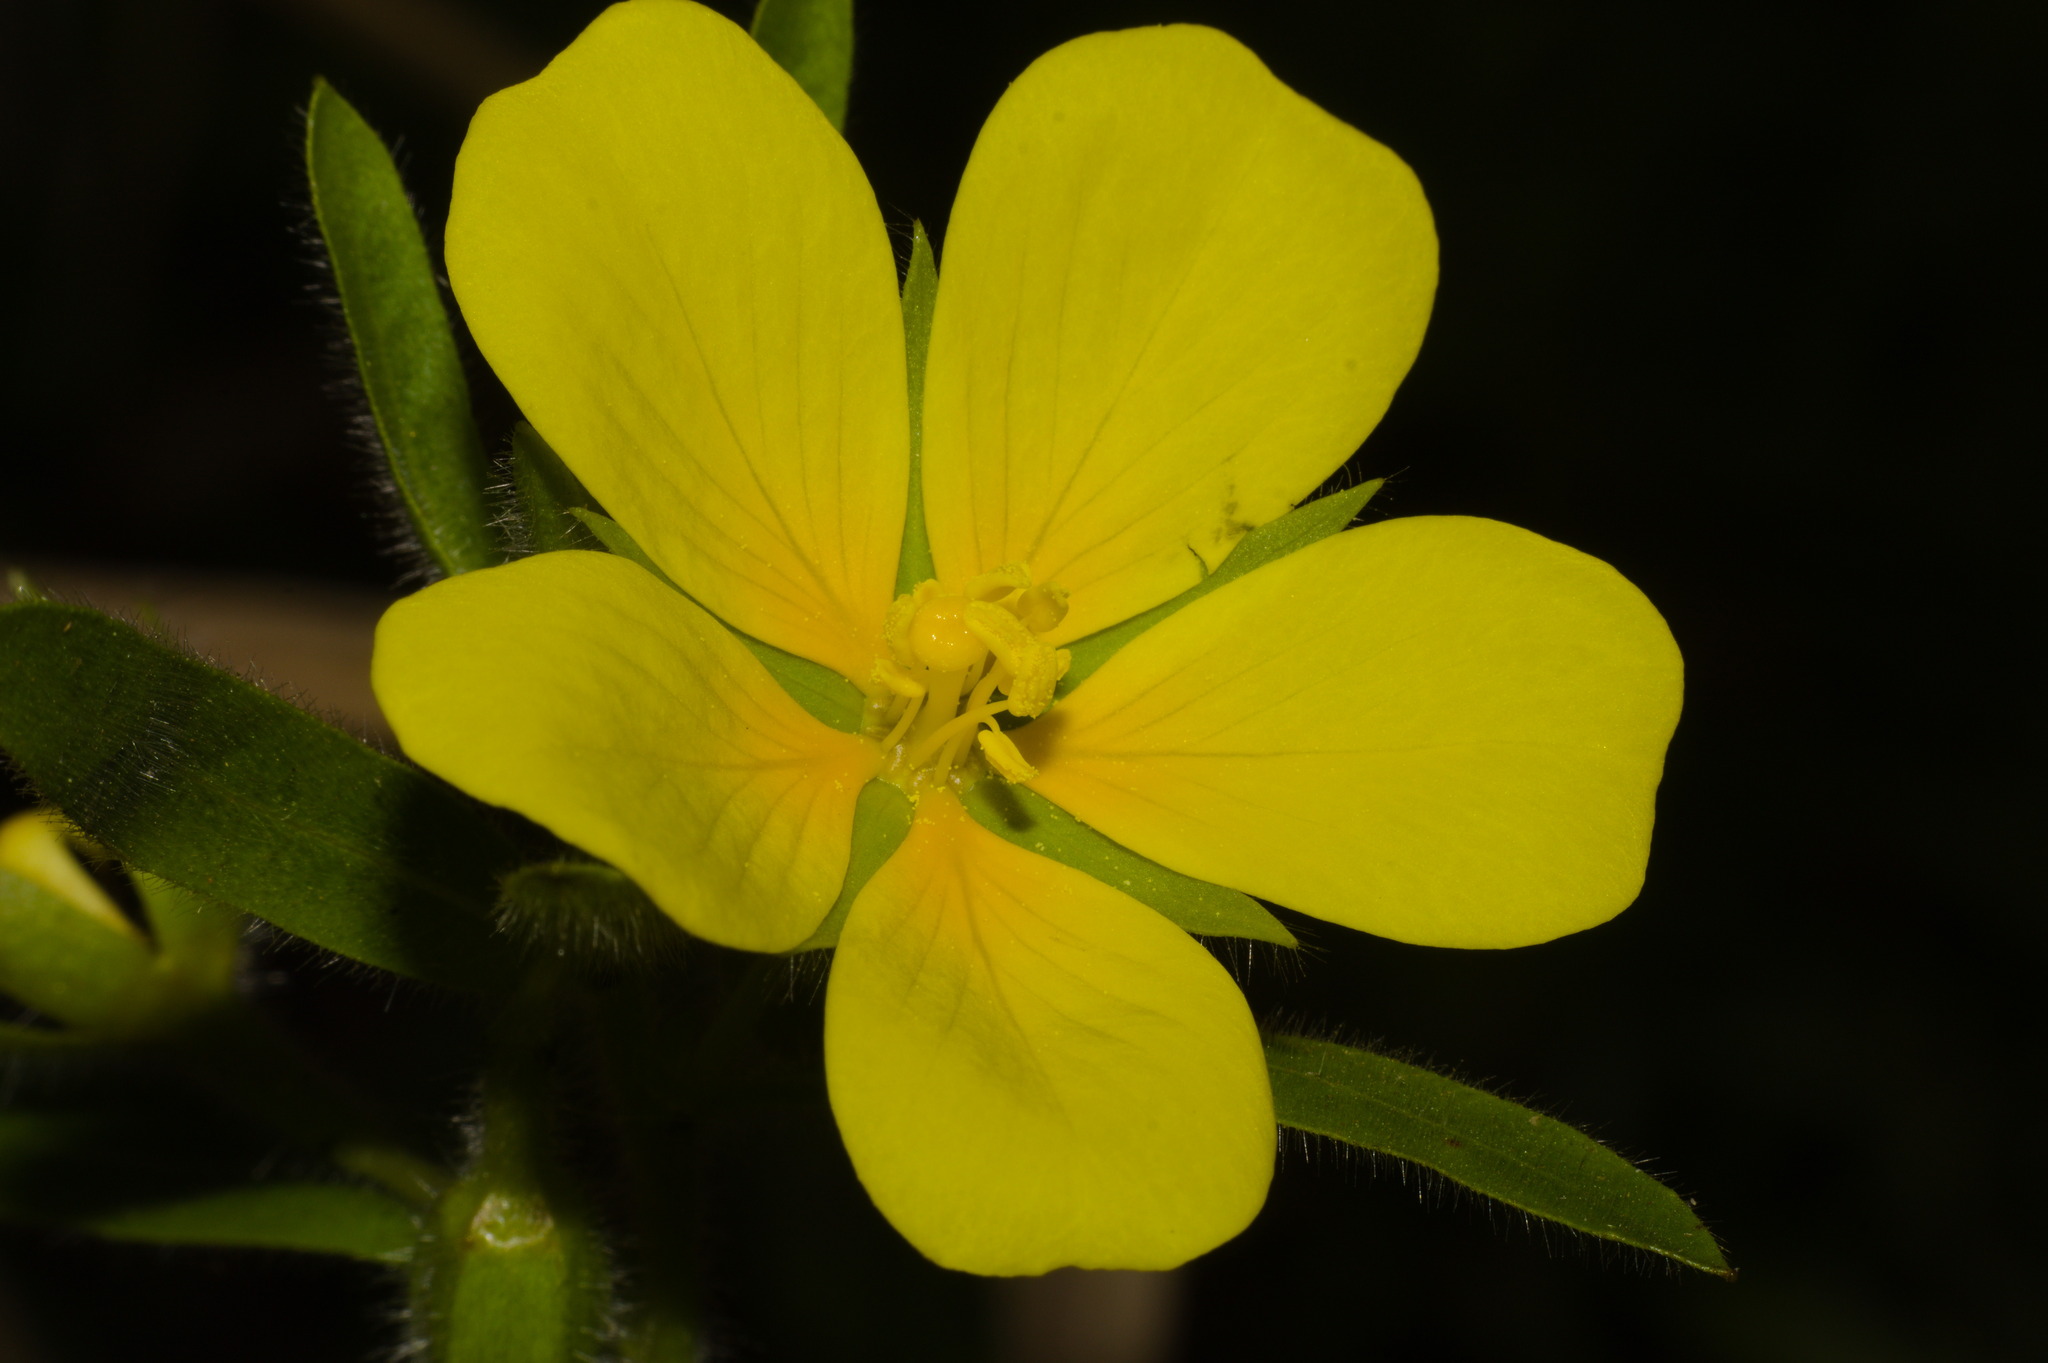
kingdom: Plantae
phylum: Tracheophyta
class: Magnoliopsida
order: Myrtales
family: Onagraceae
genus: Ludwigia
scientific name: Ludwigia grandiflora
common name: Water primrose
